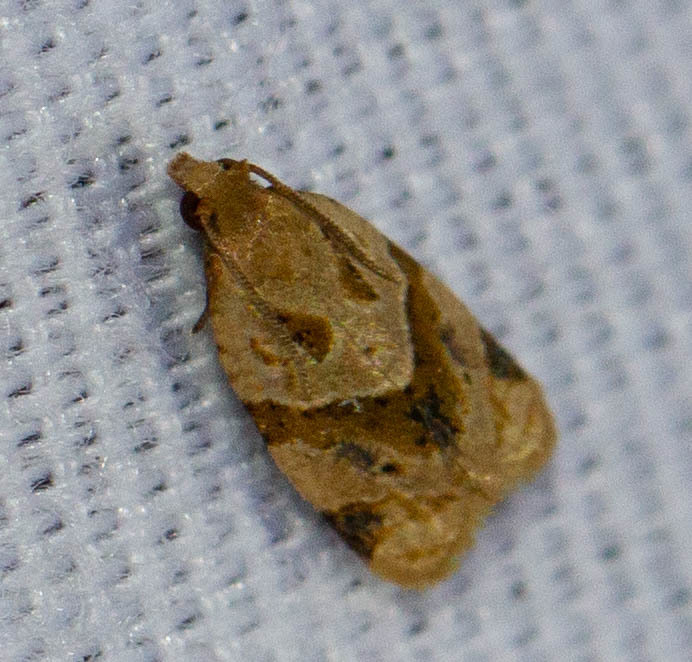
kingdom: Animalia
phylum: Arthropoda
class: Insecta
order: Lepidoptera
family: Tortricidae
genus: Clepsis
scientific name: Clepsis peritana
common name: Garden tortrix
